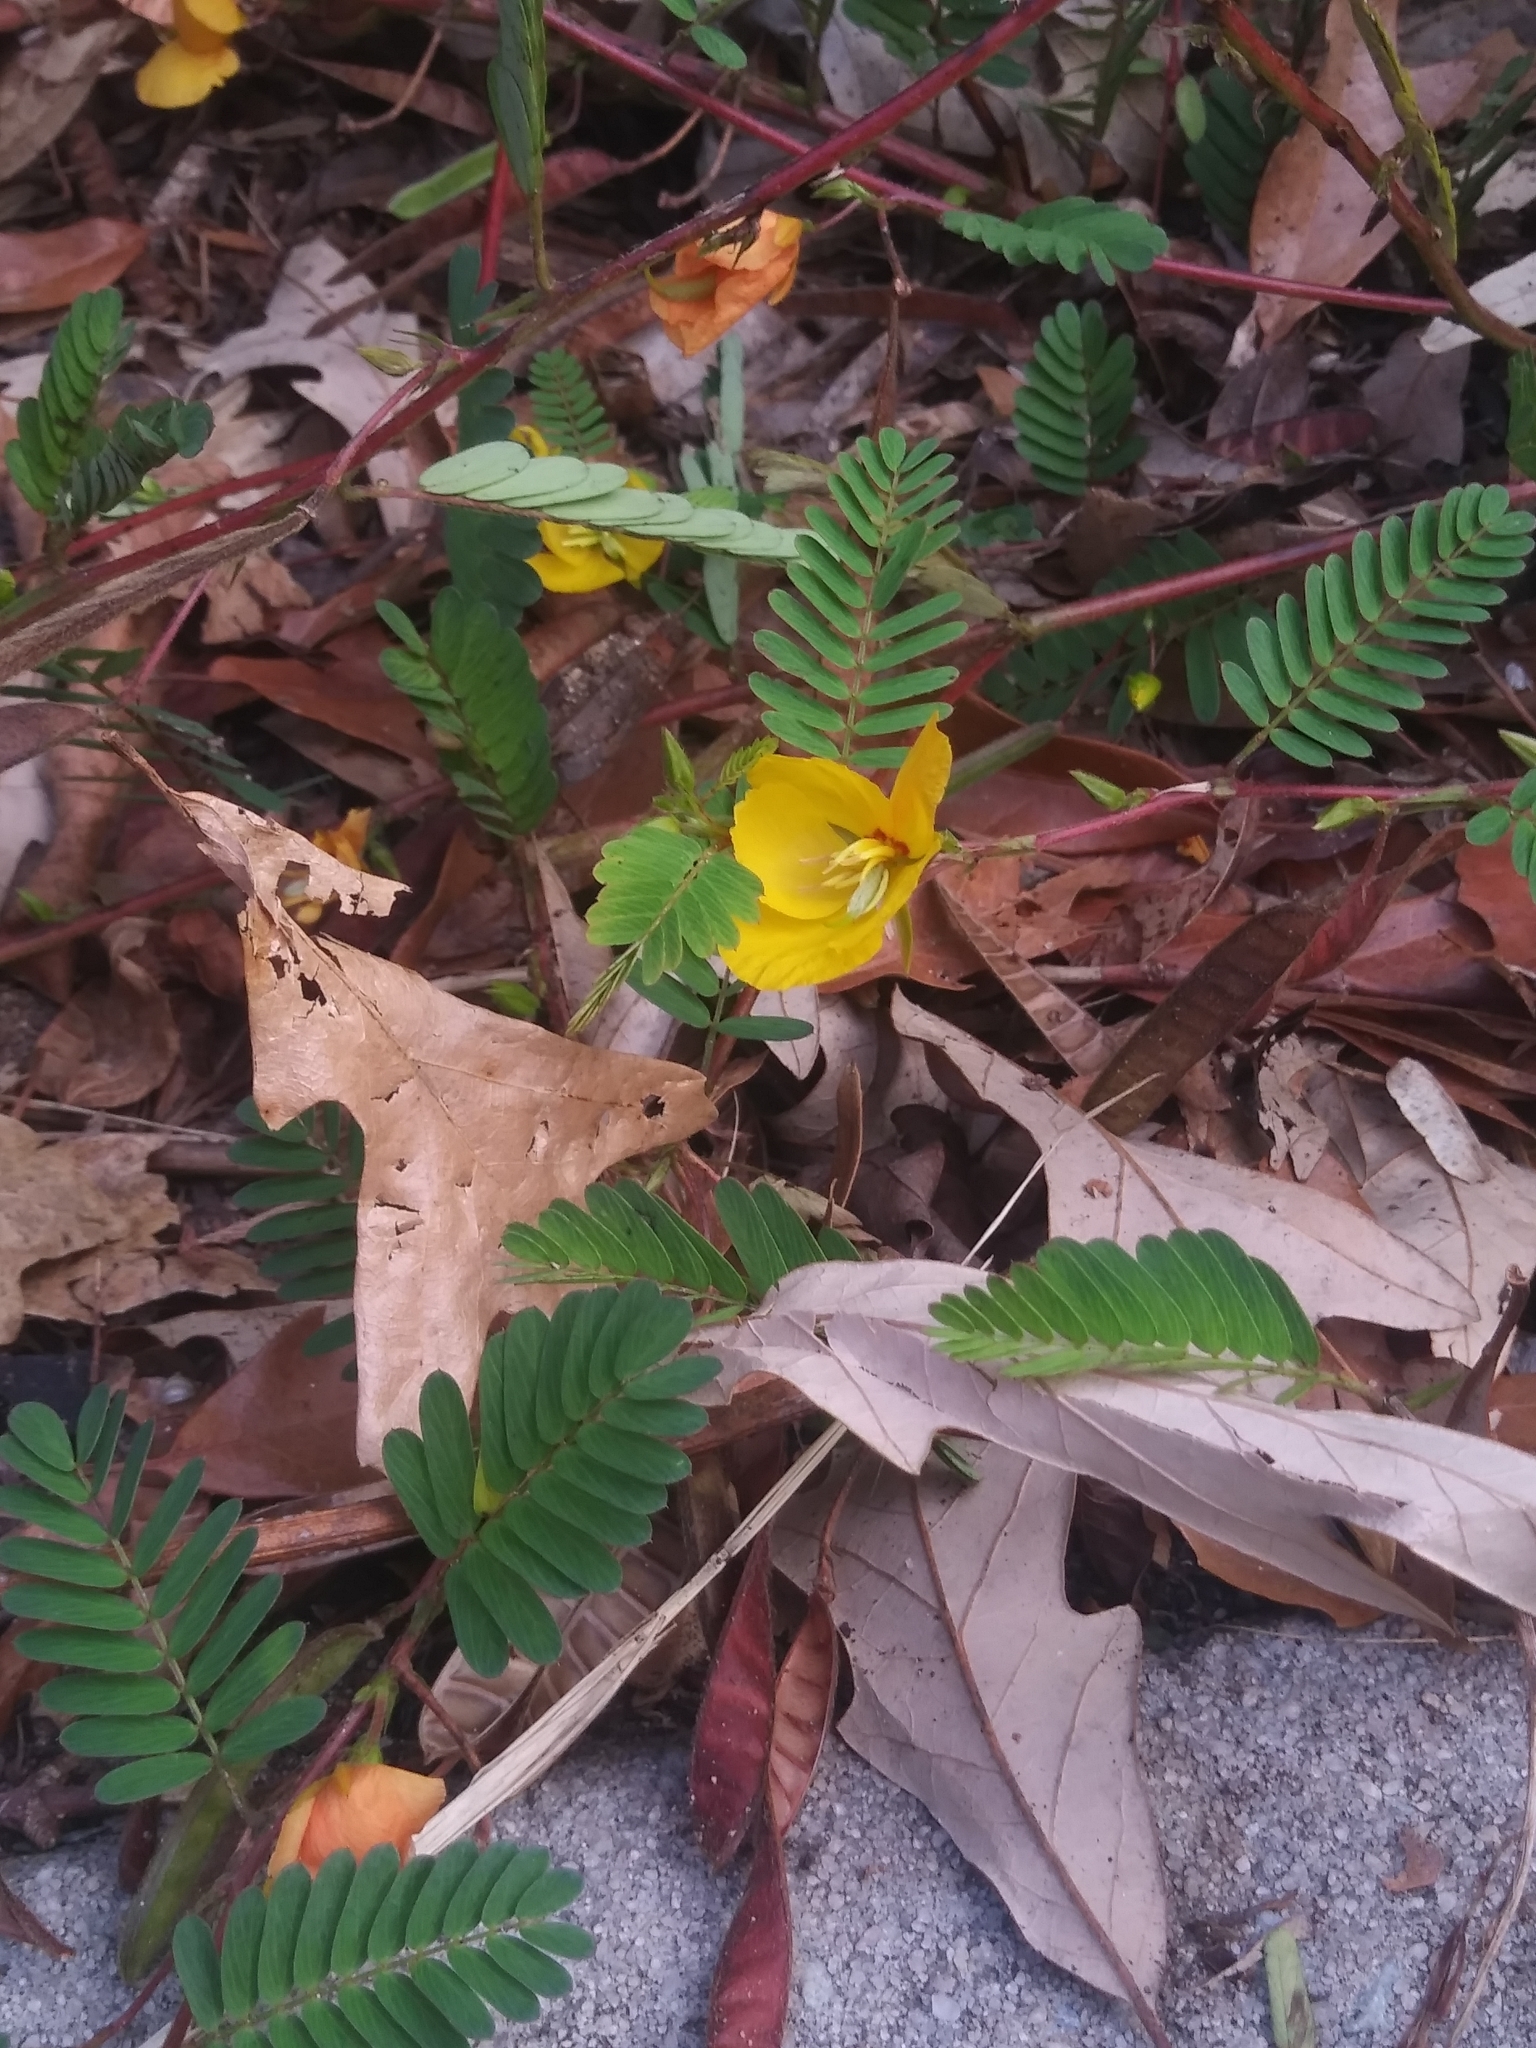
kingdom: Plantae
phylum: Tracheophyta
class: Magnoliopsida
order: Fabales
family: Fabaceae
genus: Chamaecrista
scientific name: Chamaecrista fasciculata
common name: Golden cassia
